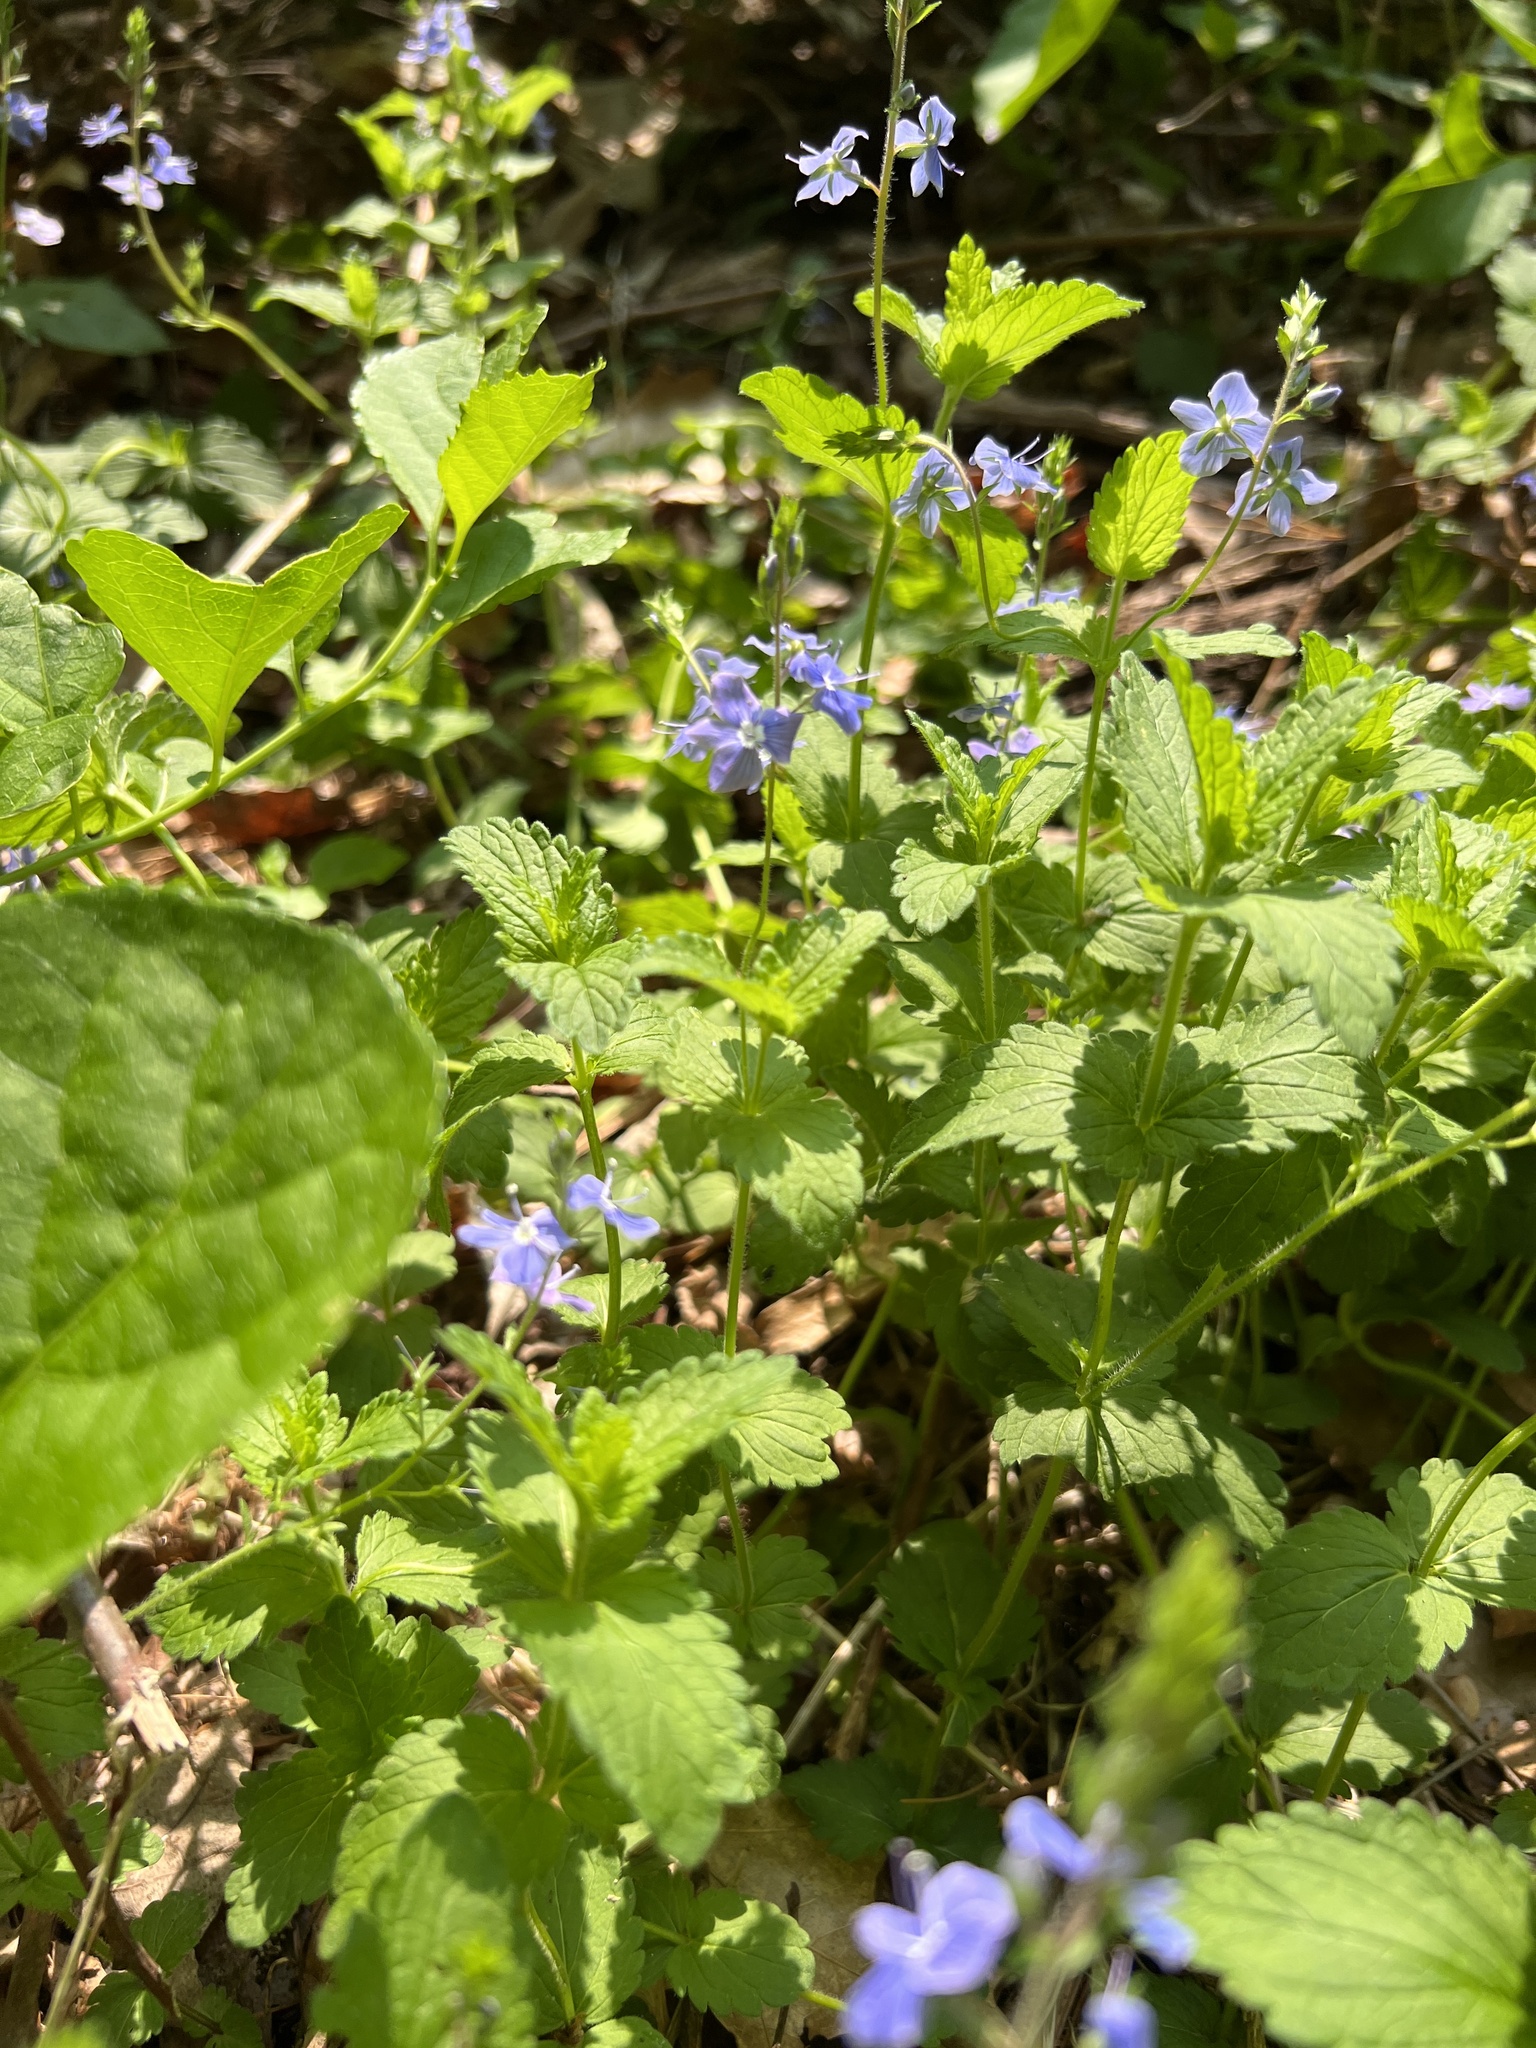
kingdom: Plantae
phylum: Tracheophyta
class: Magnoliopsida
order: Lamiales
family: Plantaginaceae
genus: Veronica
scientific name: Veronica chamaedrys
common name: Germander speedwell
